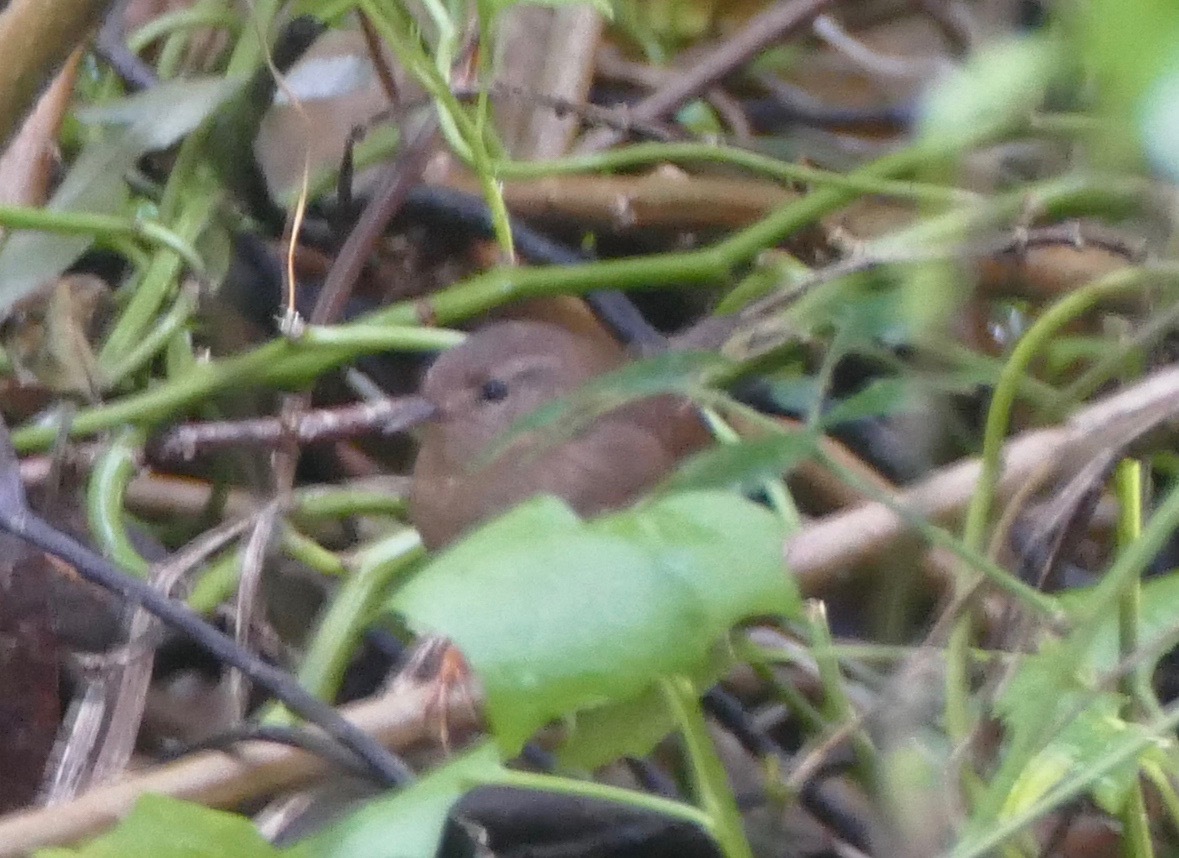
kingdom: Animalia
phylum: Chordata
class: Aves
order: Passeriformes
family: Troglodytidae
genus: Troglodytes
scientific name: Troglodytes pacificus
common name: Pacific wren
